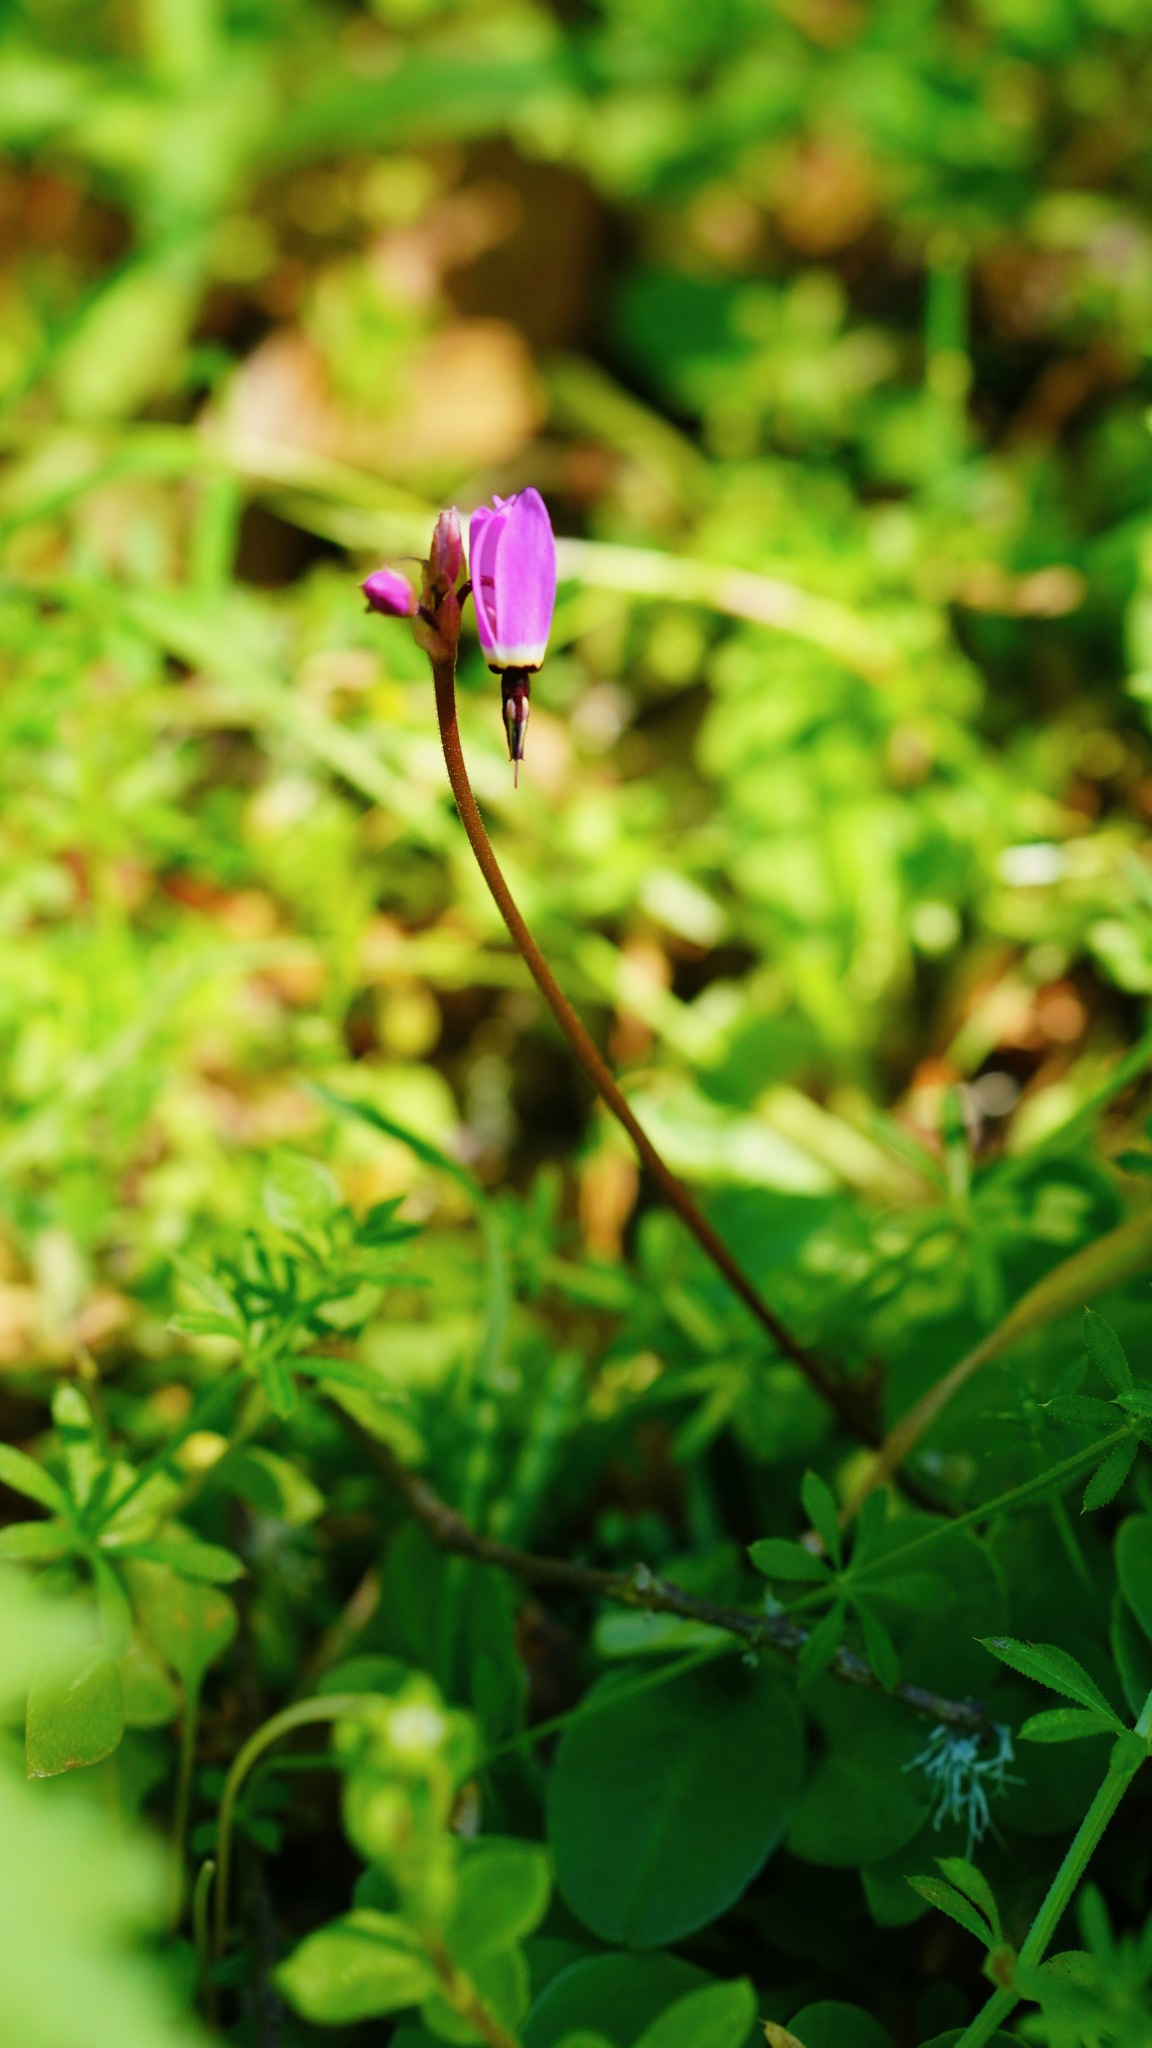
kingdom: Plantae
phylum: Tracheophyta
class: Magnoliopsida
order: Ericales
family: Primulaceae
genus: Dodecatheon
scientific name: Dodecatheon hendersonii
